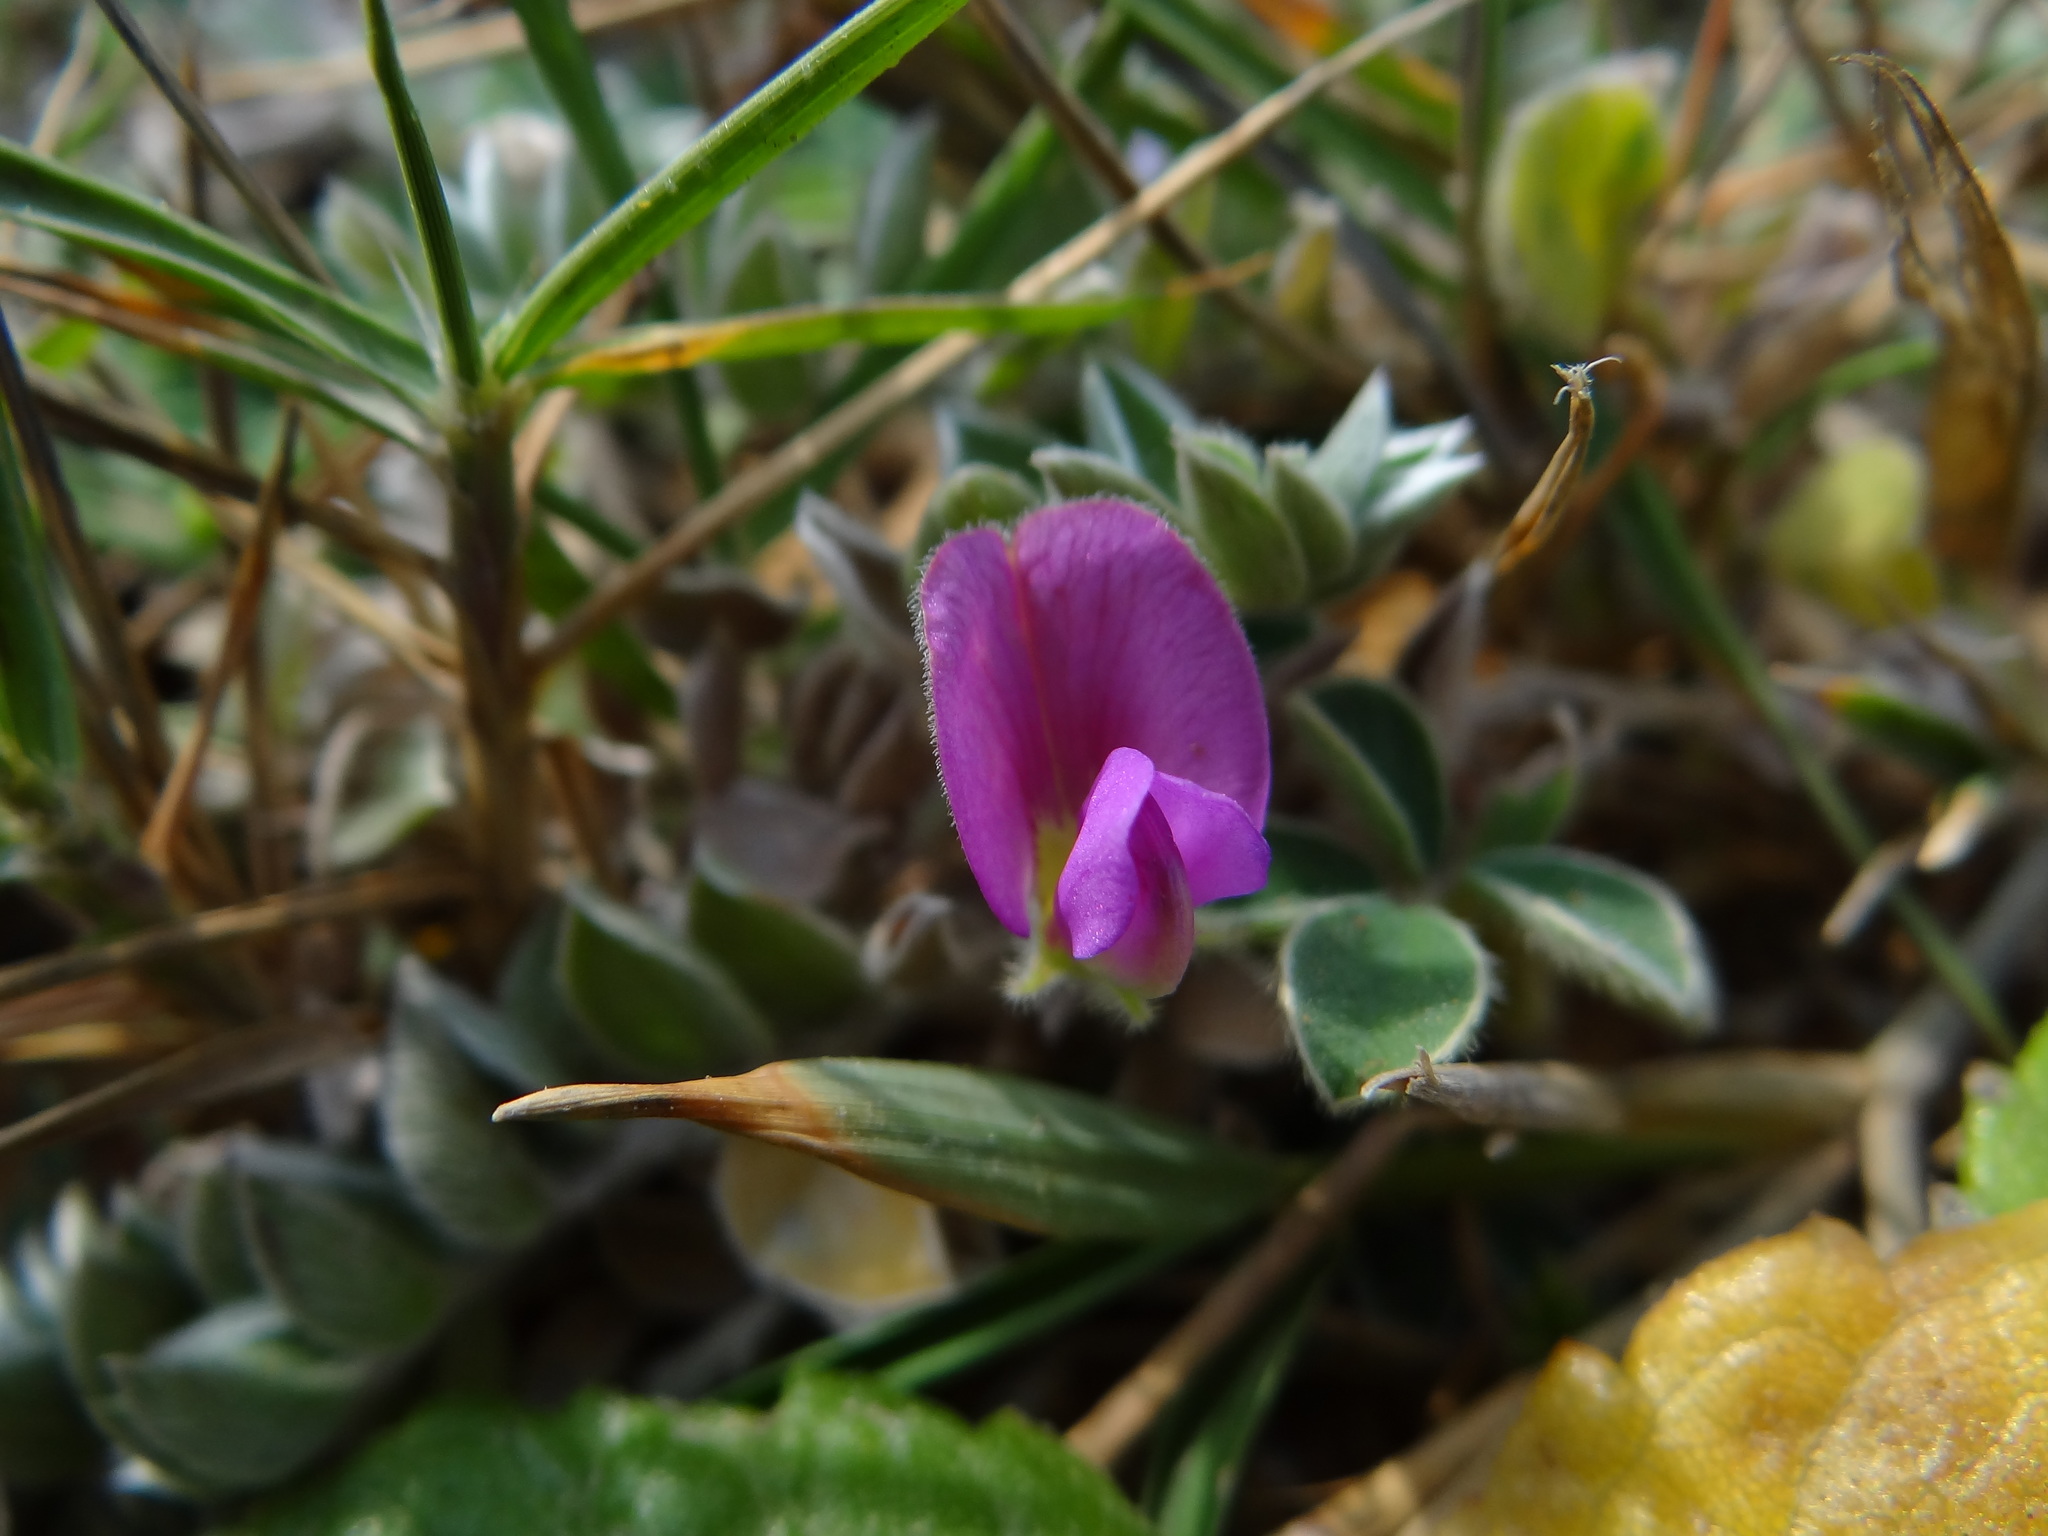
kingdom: Plantae
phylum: Tracheophyta
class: Magnoliopsida
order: Fabales
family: Fabaceae
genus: Tephrosia
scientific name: Tephrosia obovata
